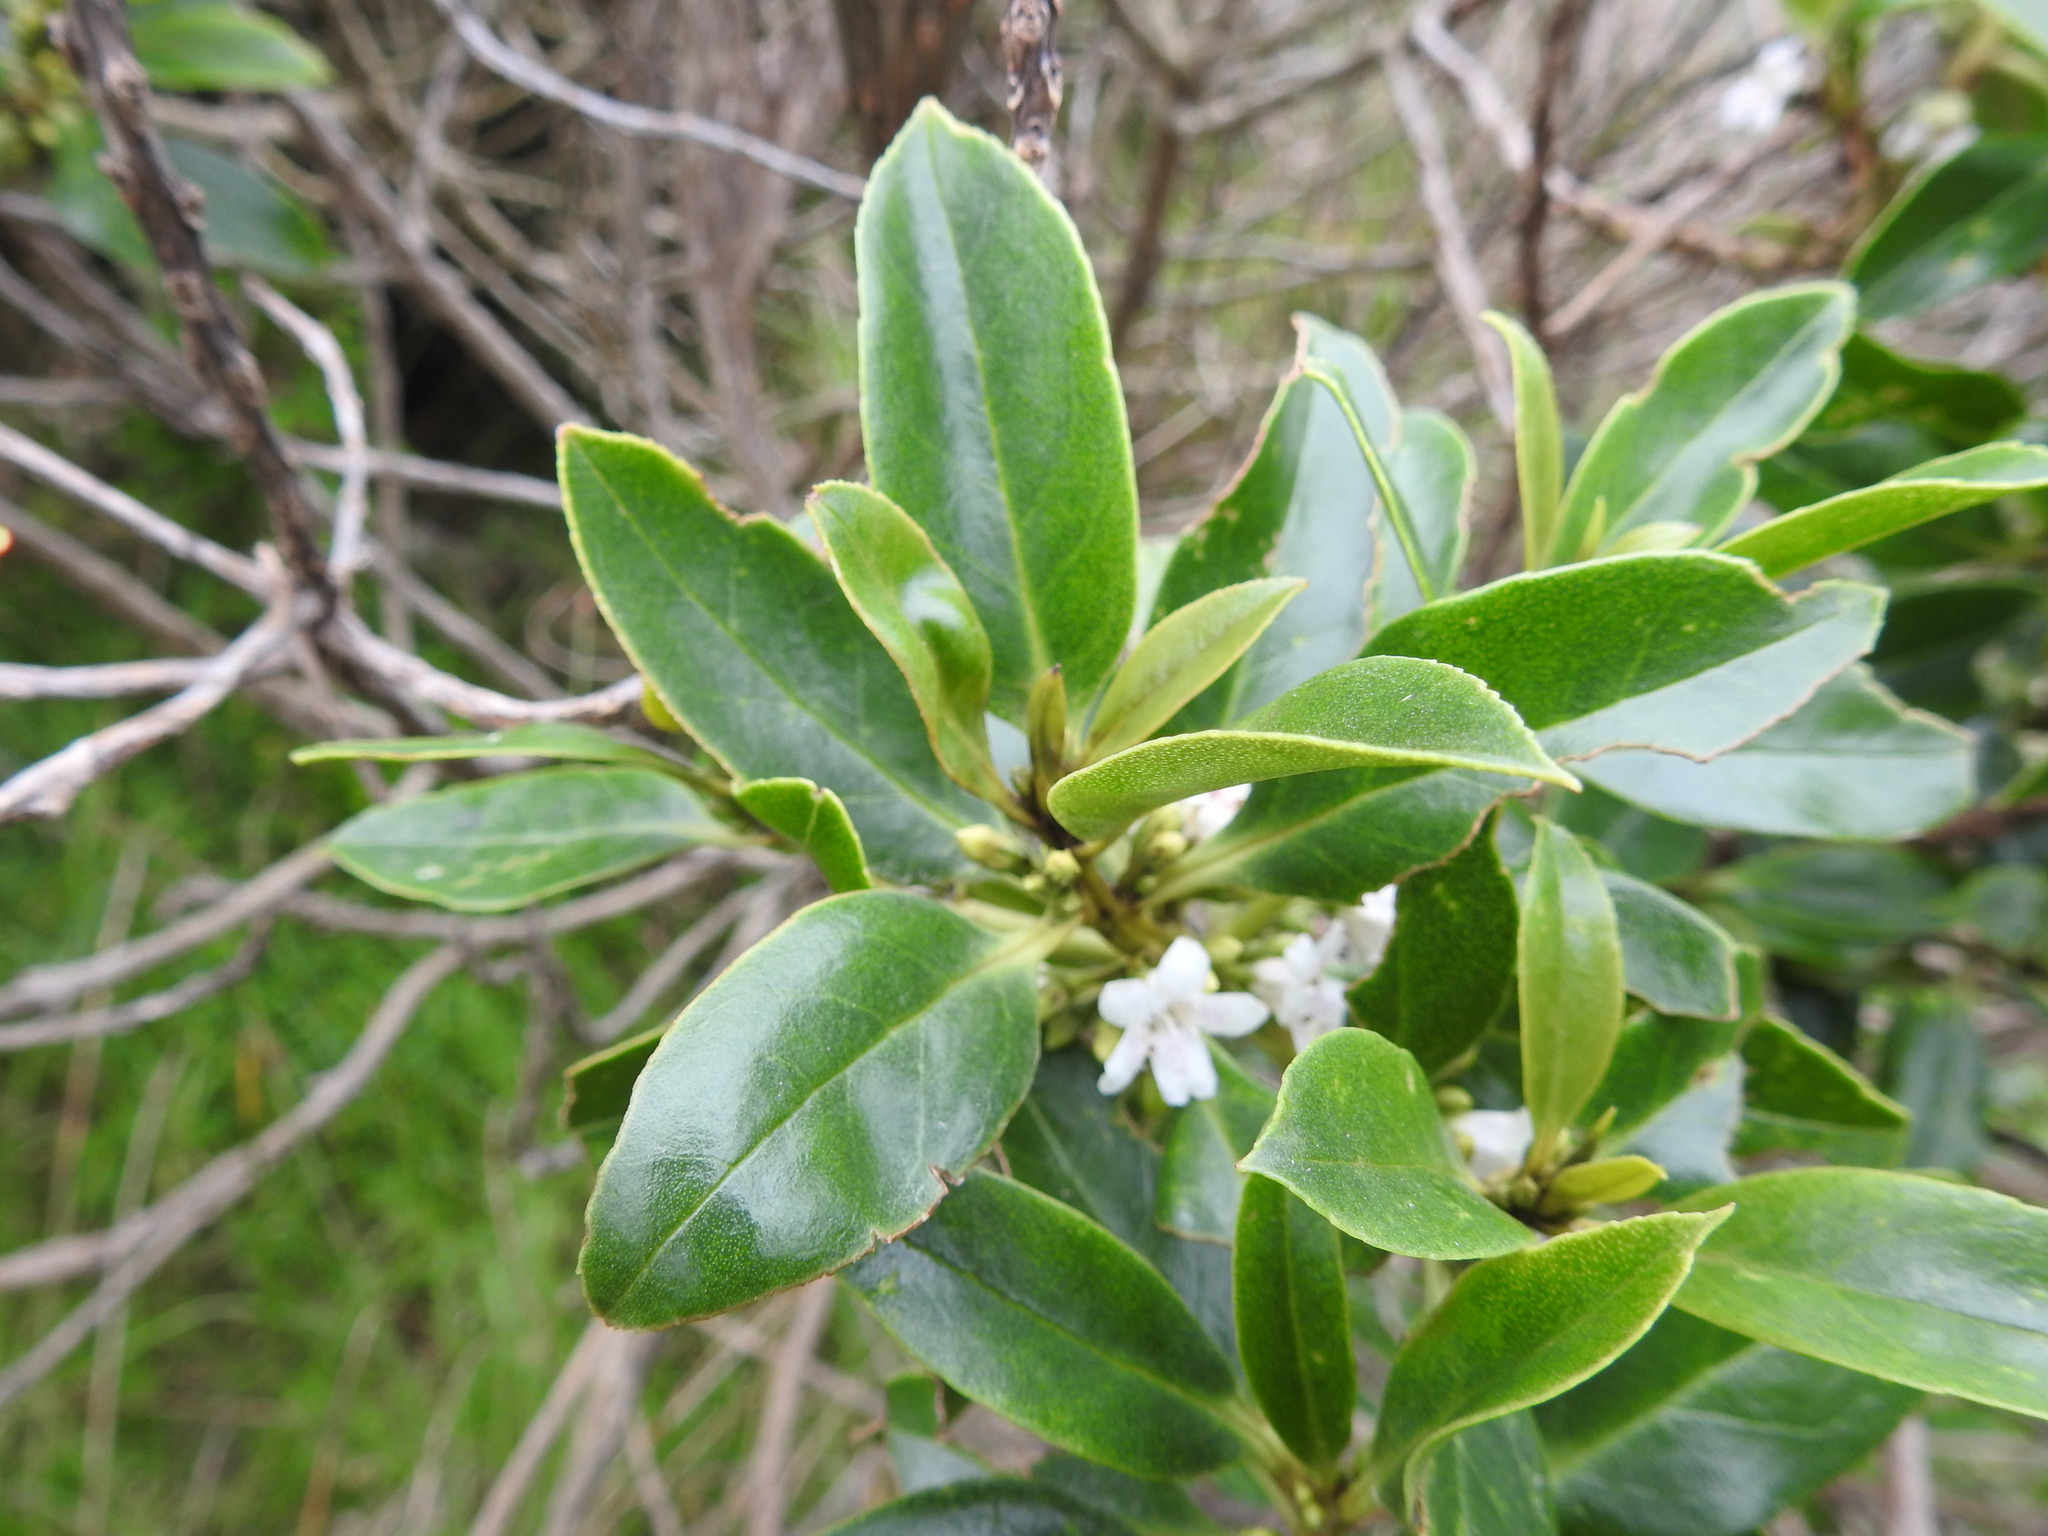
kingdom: Plantae
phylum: Tracheophyta
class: Magnoliopsida
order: Lamiales
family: Scrophulariaceae
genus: Myoporum
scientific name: Myoporum laetum
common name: Ngaio tree
